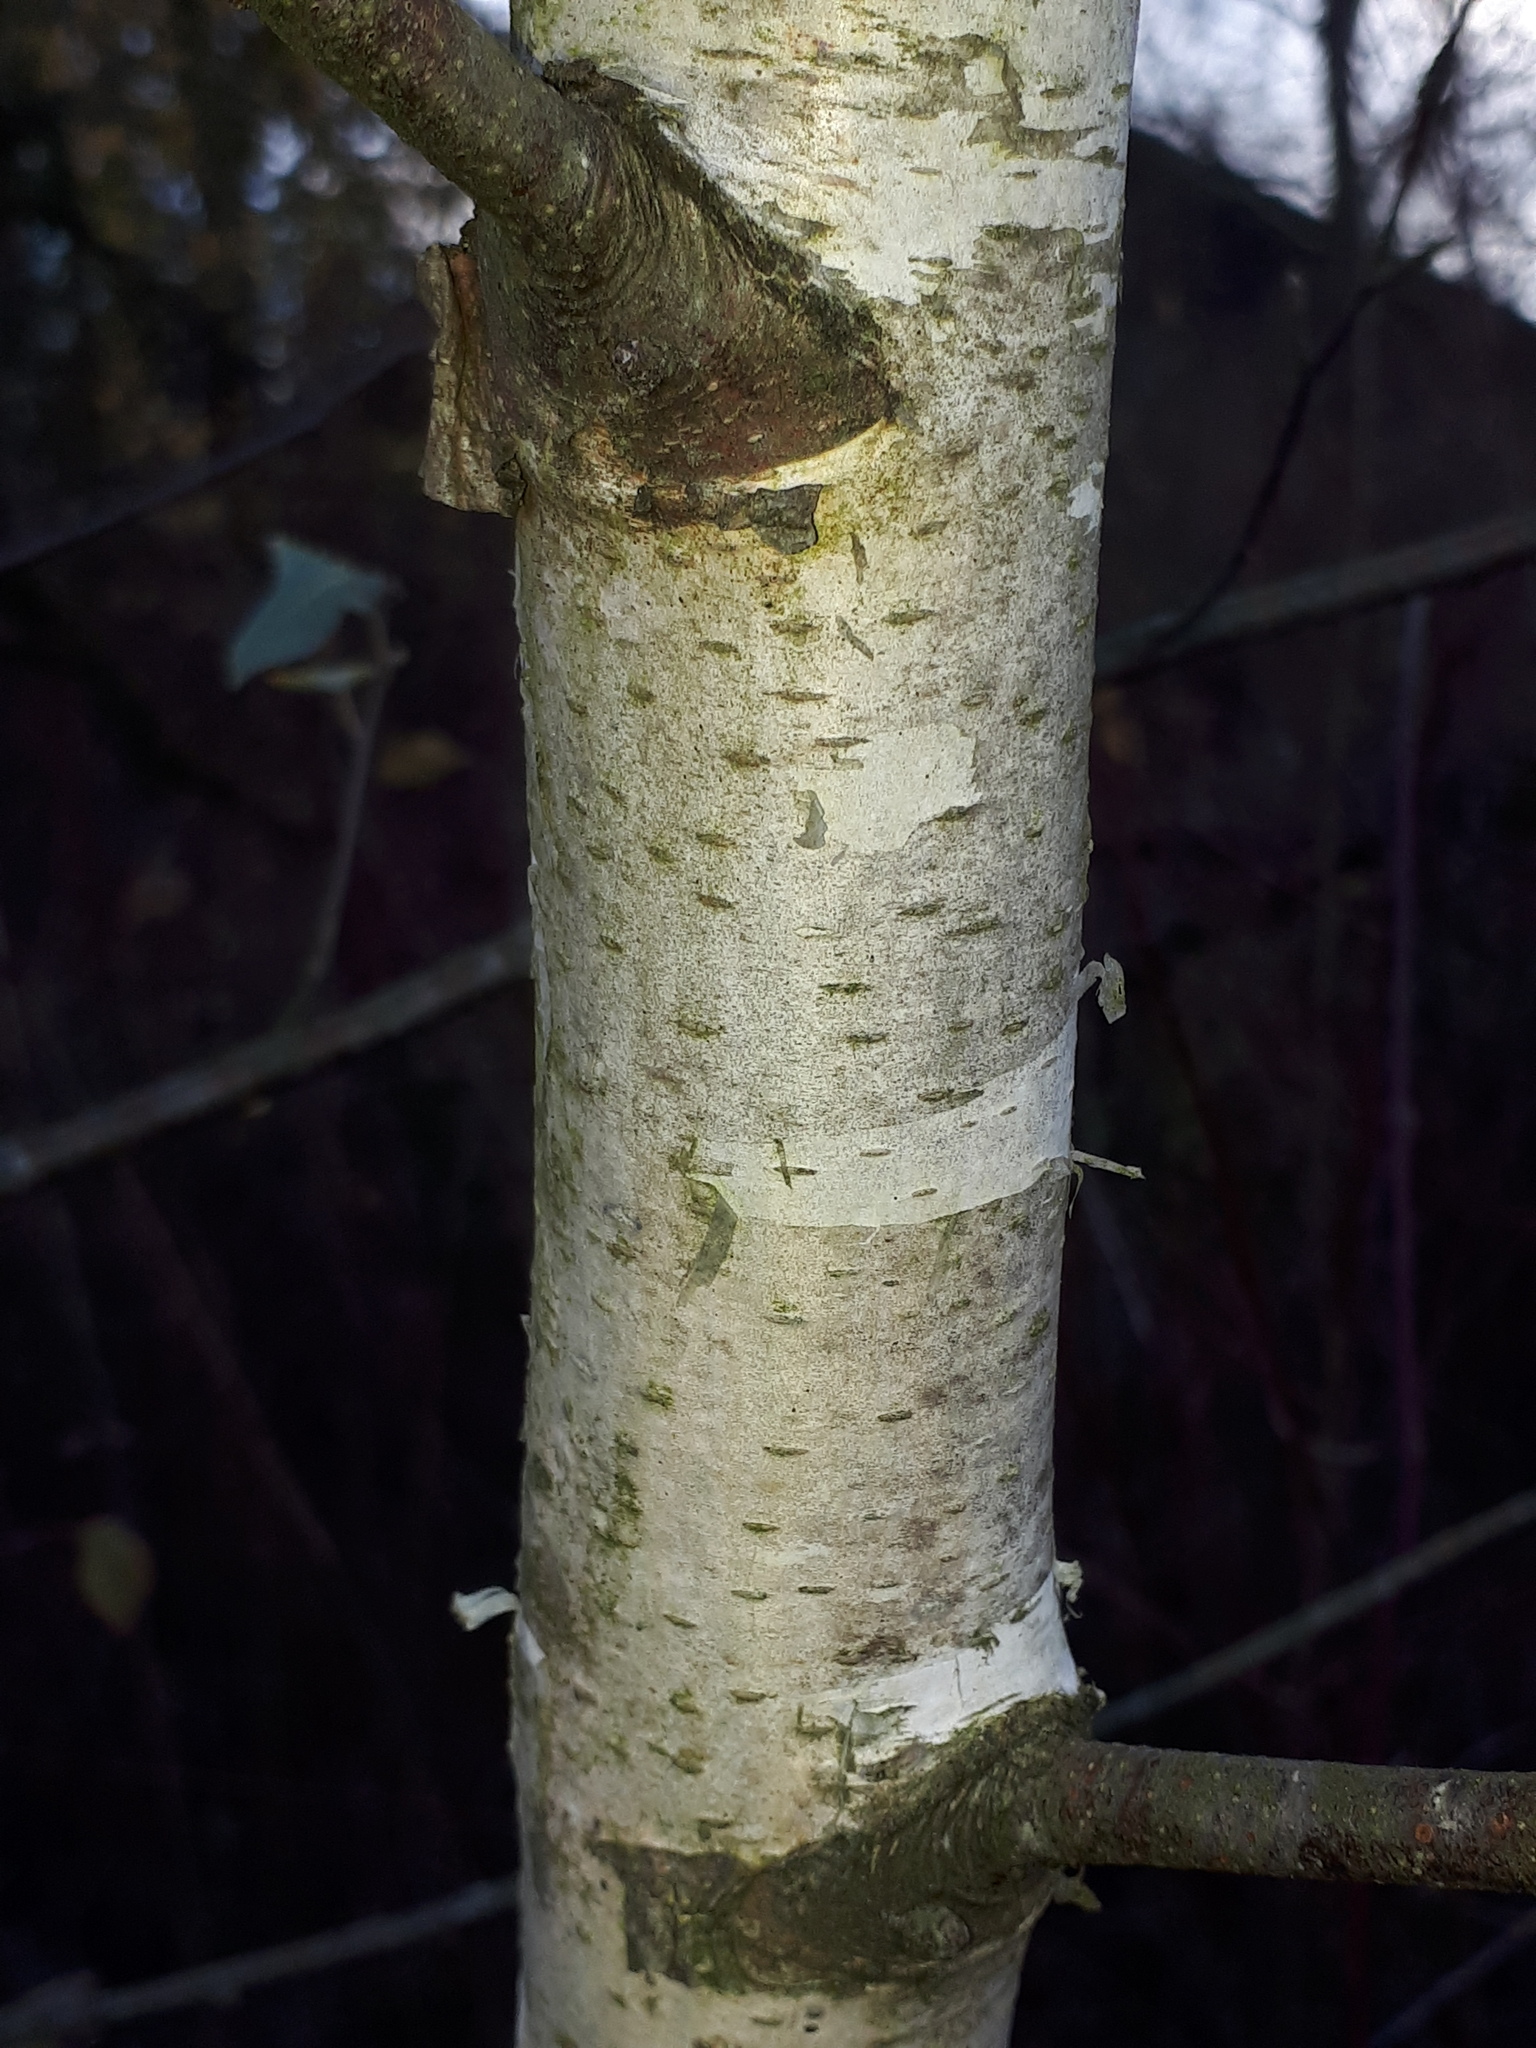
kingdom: Plantae
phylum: Tracheophyta
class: Magnoliopsida
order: Fagales
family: Betulaceae
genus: Betula
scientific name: Betula pendula
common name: Silver birch
